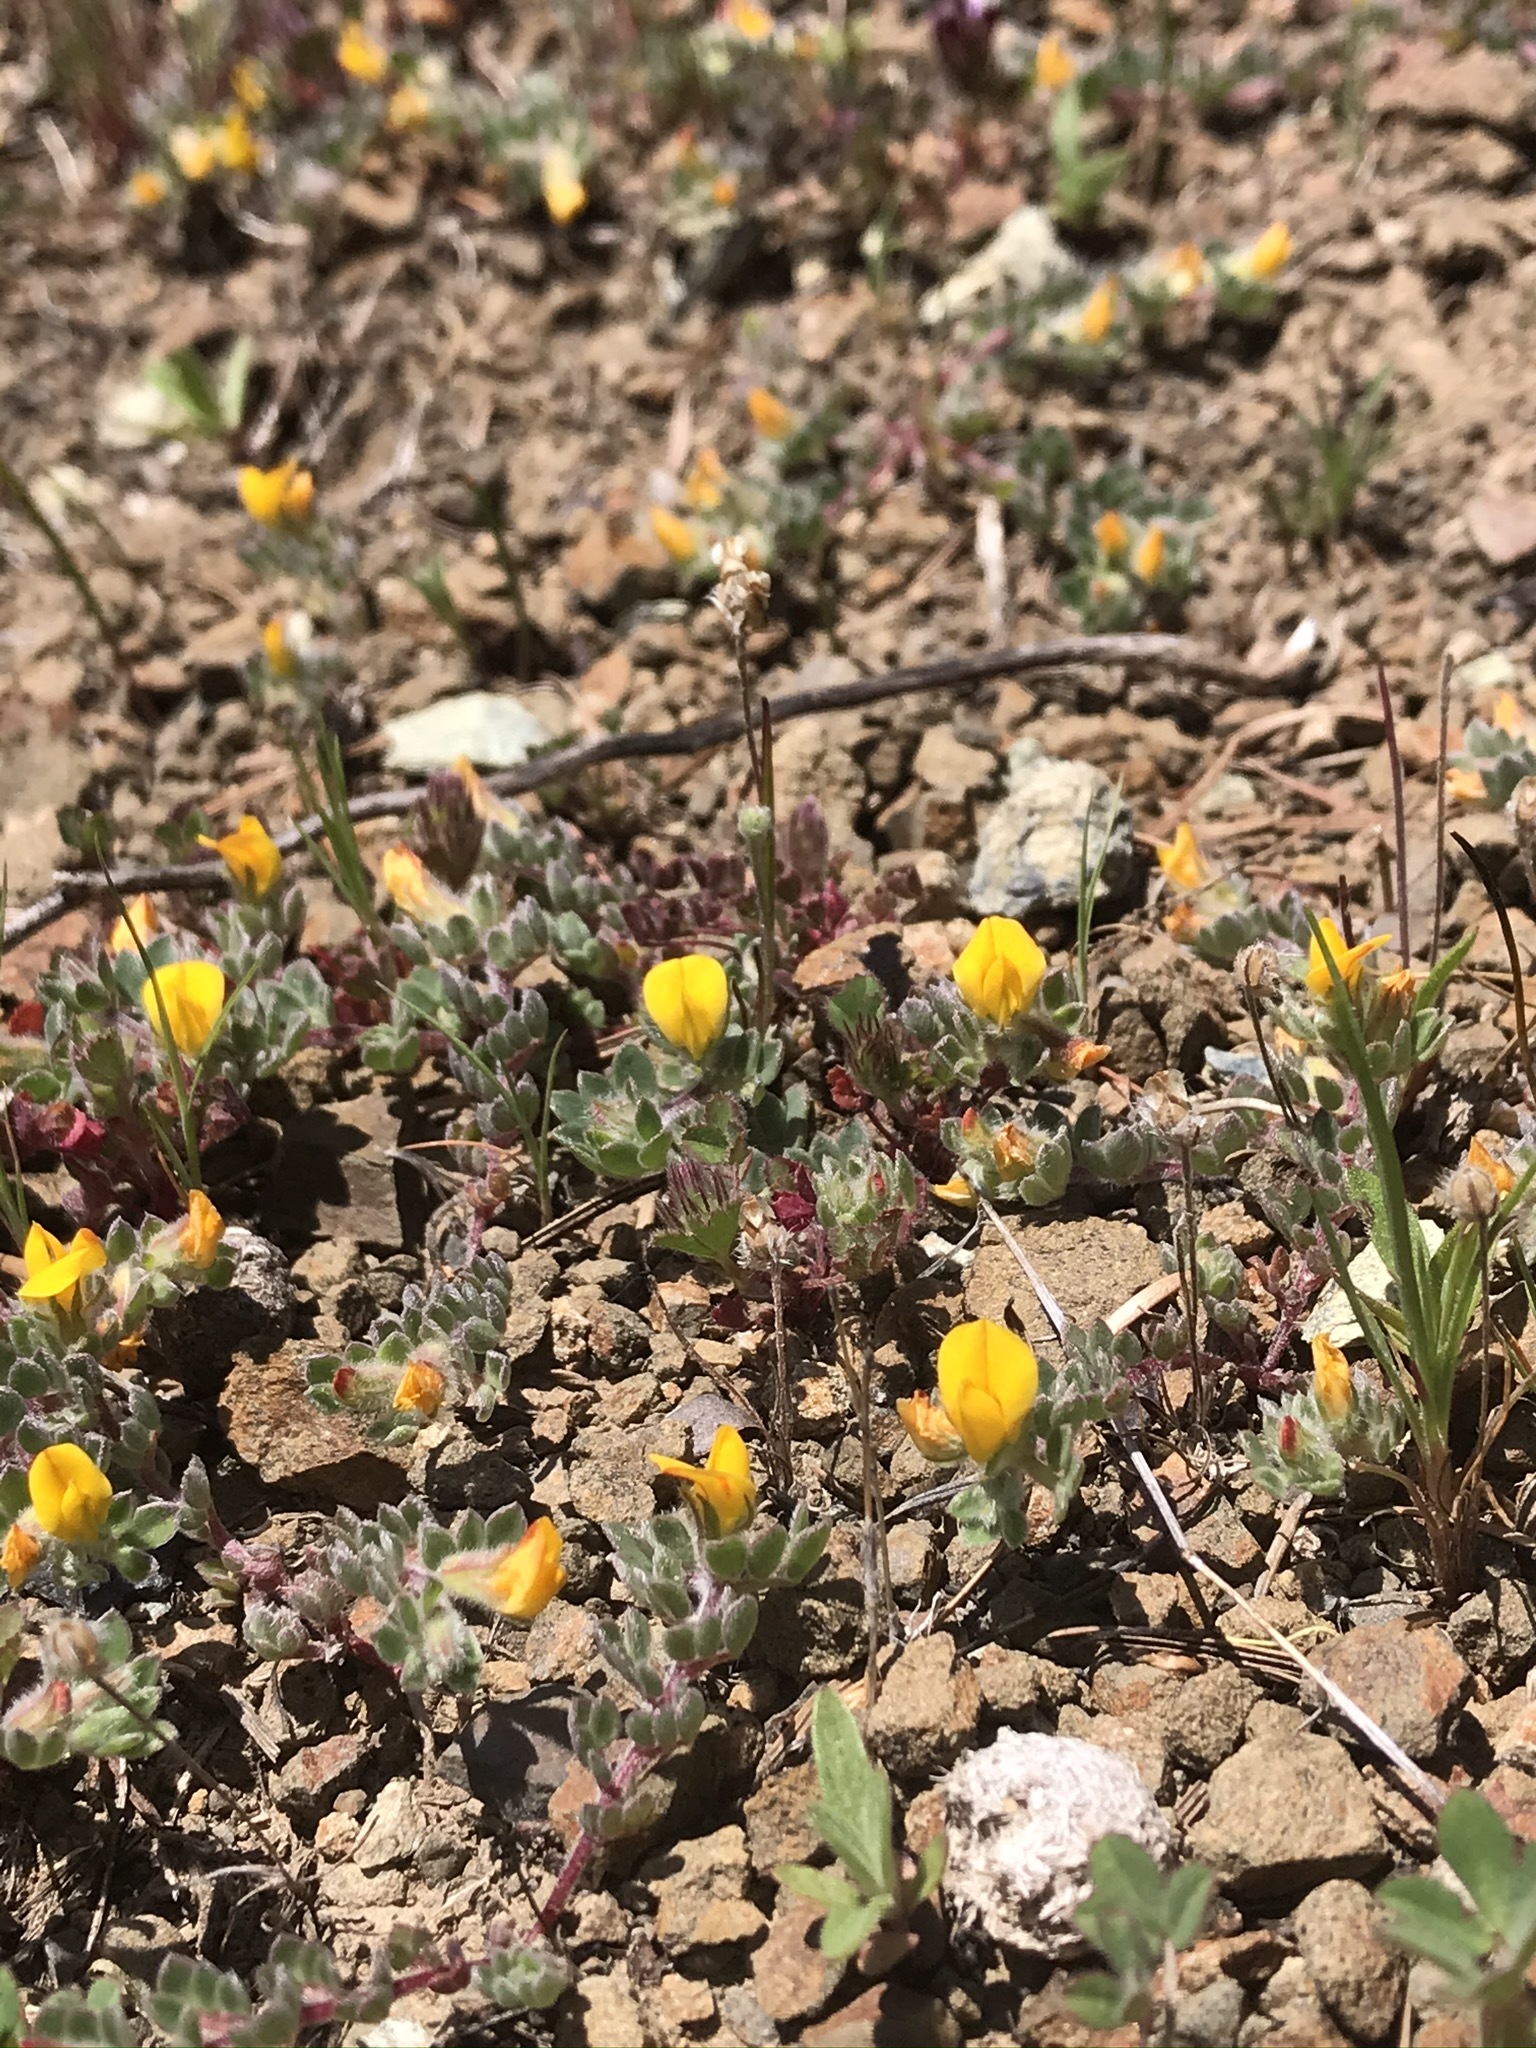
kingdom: Plantae
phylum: Tracheophyta
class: Magnoliopsida
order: Fabales
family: Fabaceae
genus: Acmispon
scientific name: Acmispon brachycarpus
